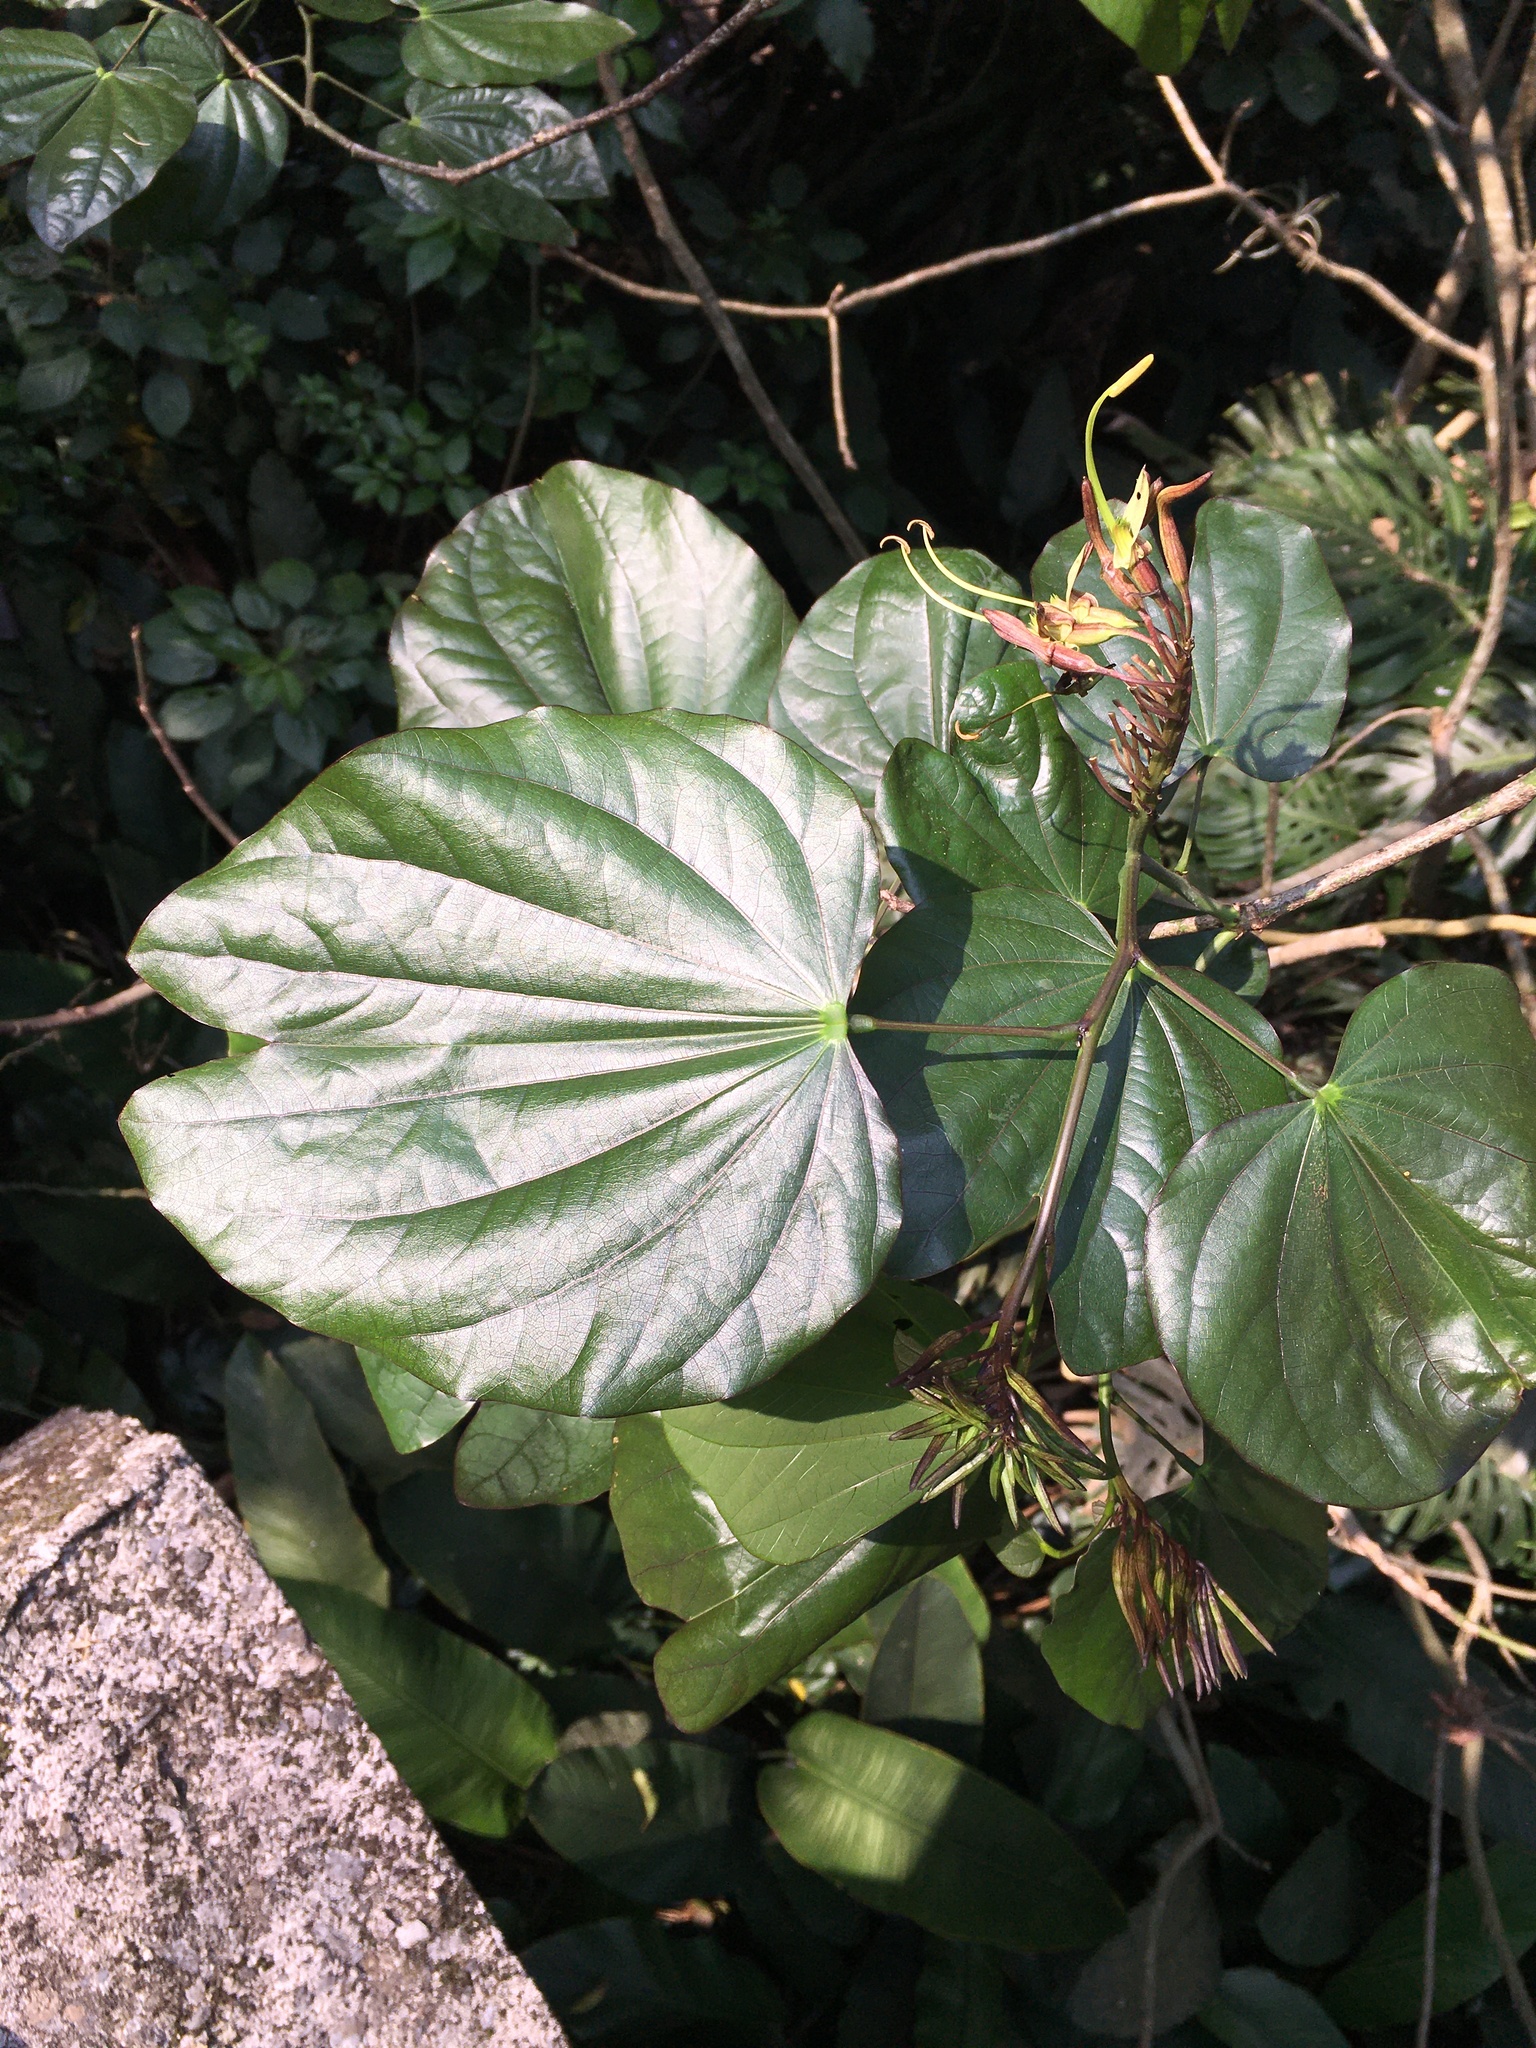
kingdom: Plantae
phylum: Tracheophyta
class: Magnoliopsida
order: Fabales
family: Fabaceae
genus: Bauhinia
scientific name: Bauhinia macranthera
